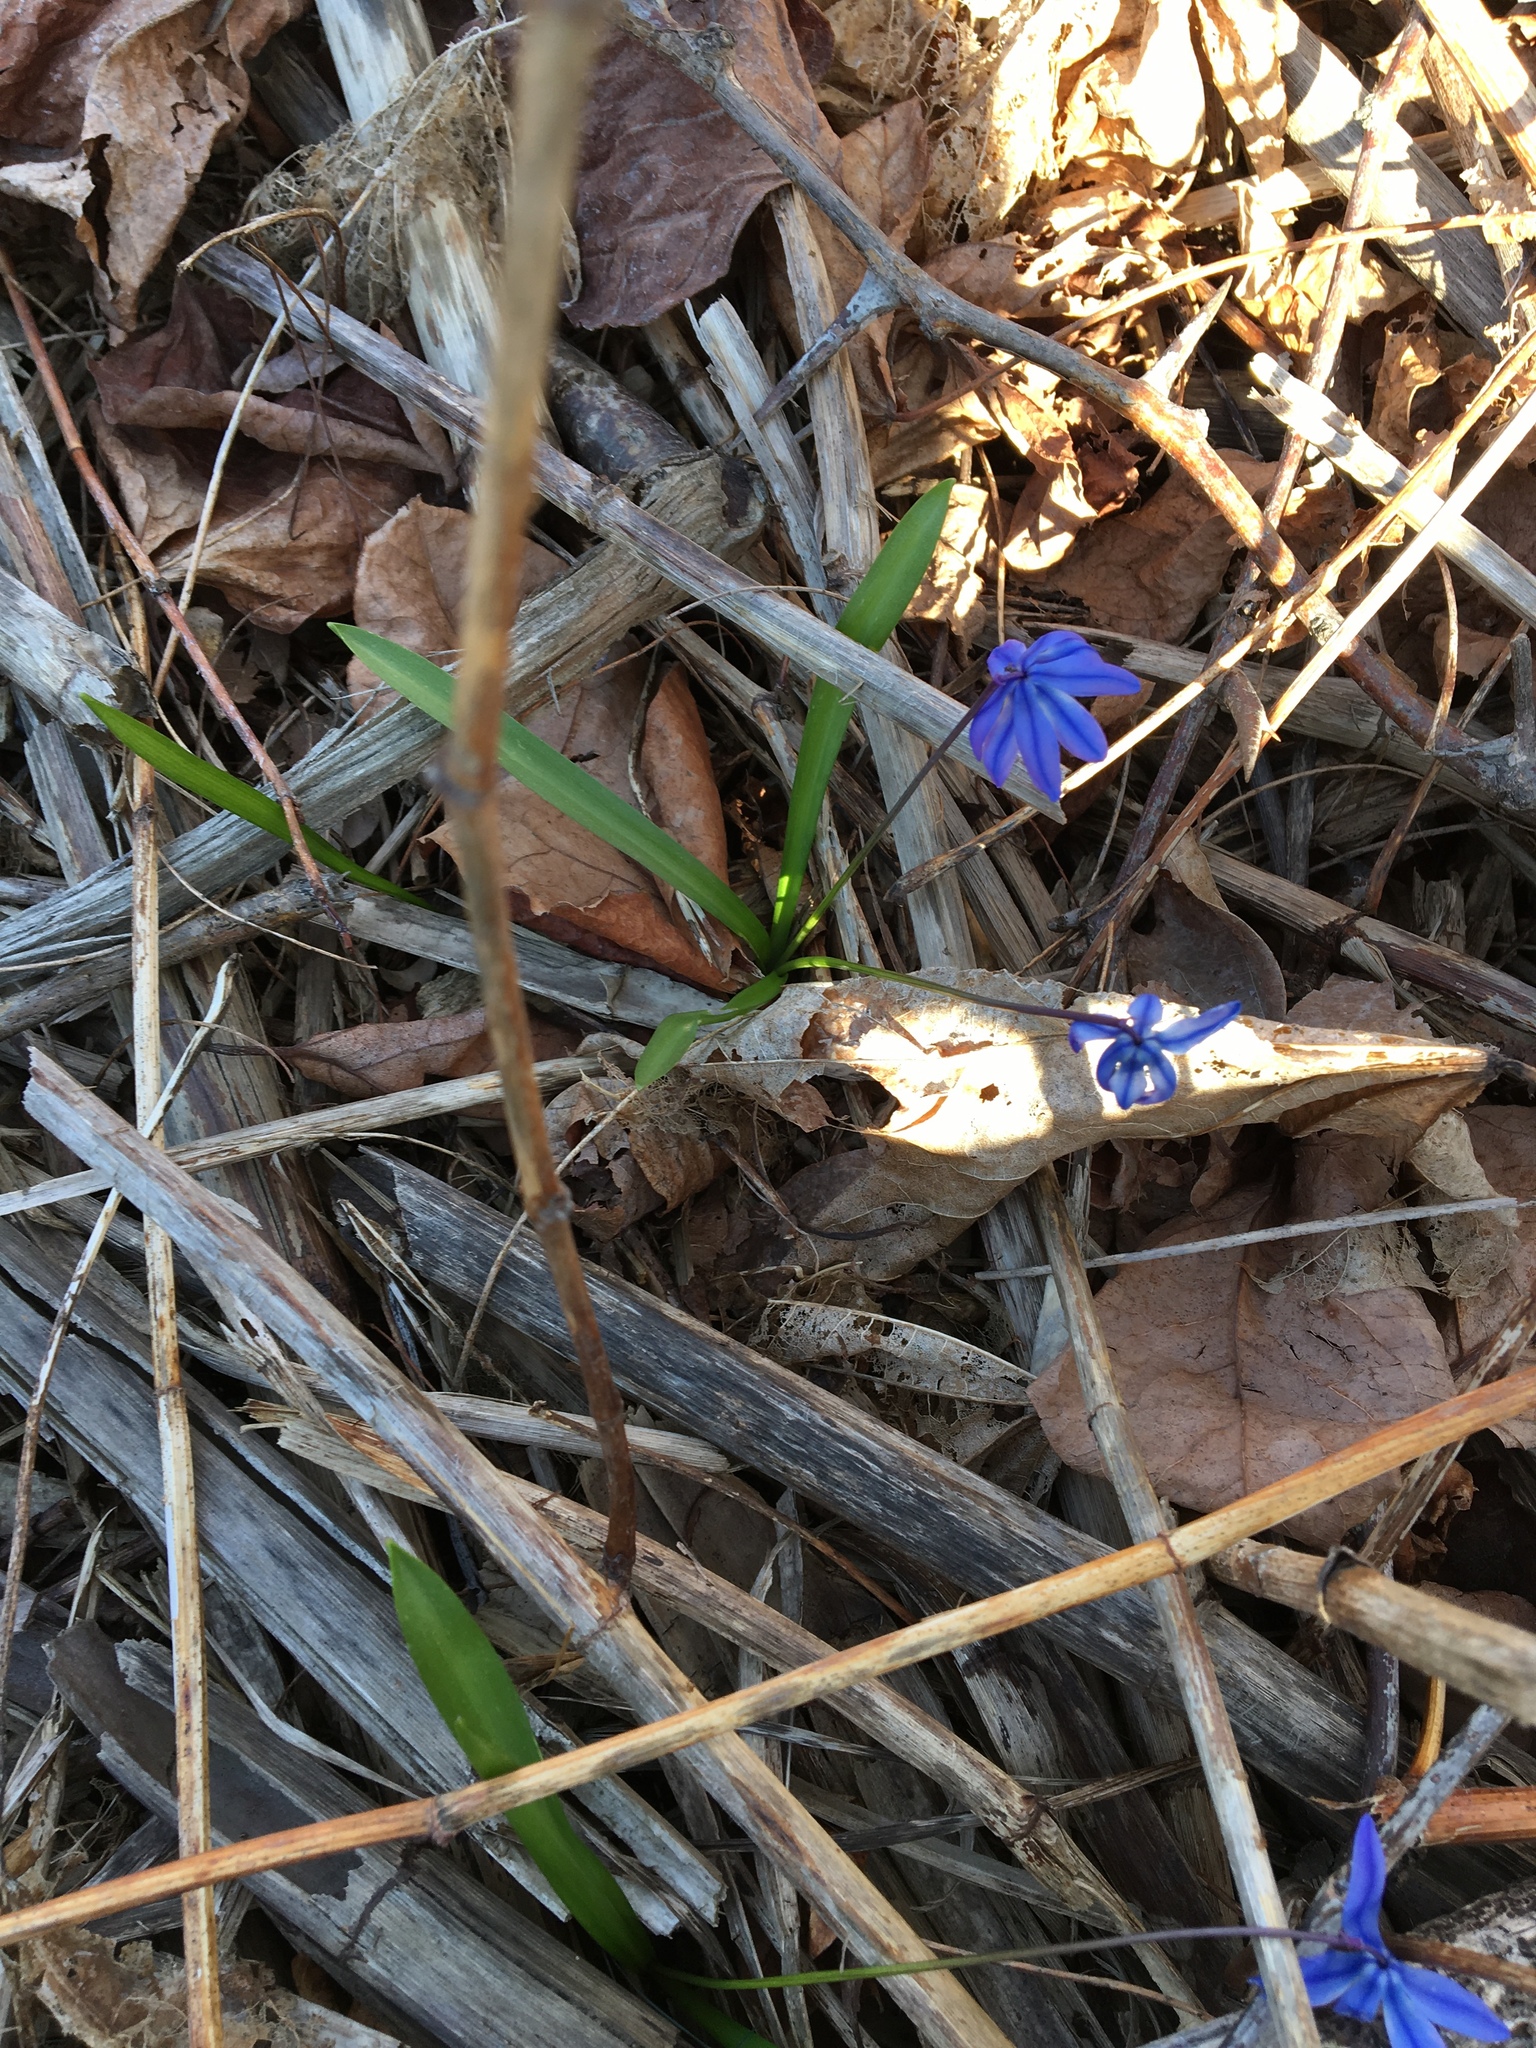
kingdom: Plantae
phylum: Tracheophyta
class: Liliopsida
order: Asparagales
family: Asparagaceae
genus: Scilla
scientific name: Scilla siberica
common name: Siberian squill
